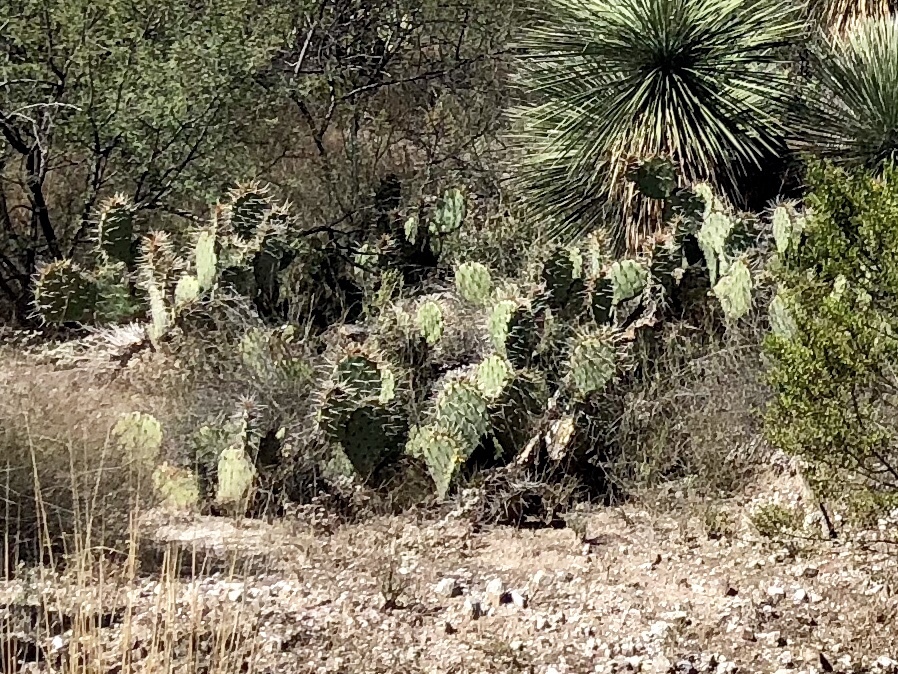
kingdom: Plantae
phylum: Tracheophyta
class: Magnoliopsida
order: Caryophyllales
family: Cactaceae
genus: Opuntia
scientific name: Opuntia engelmannii
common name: Cactus-apple
